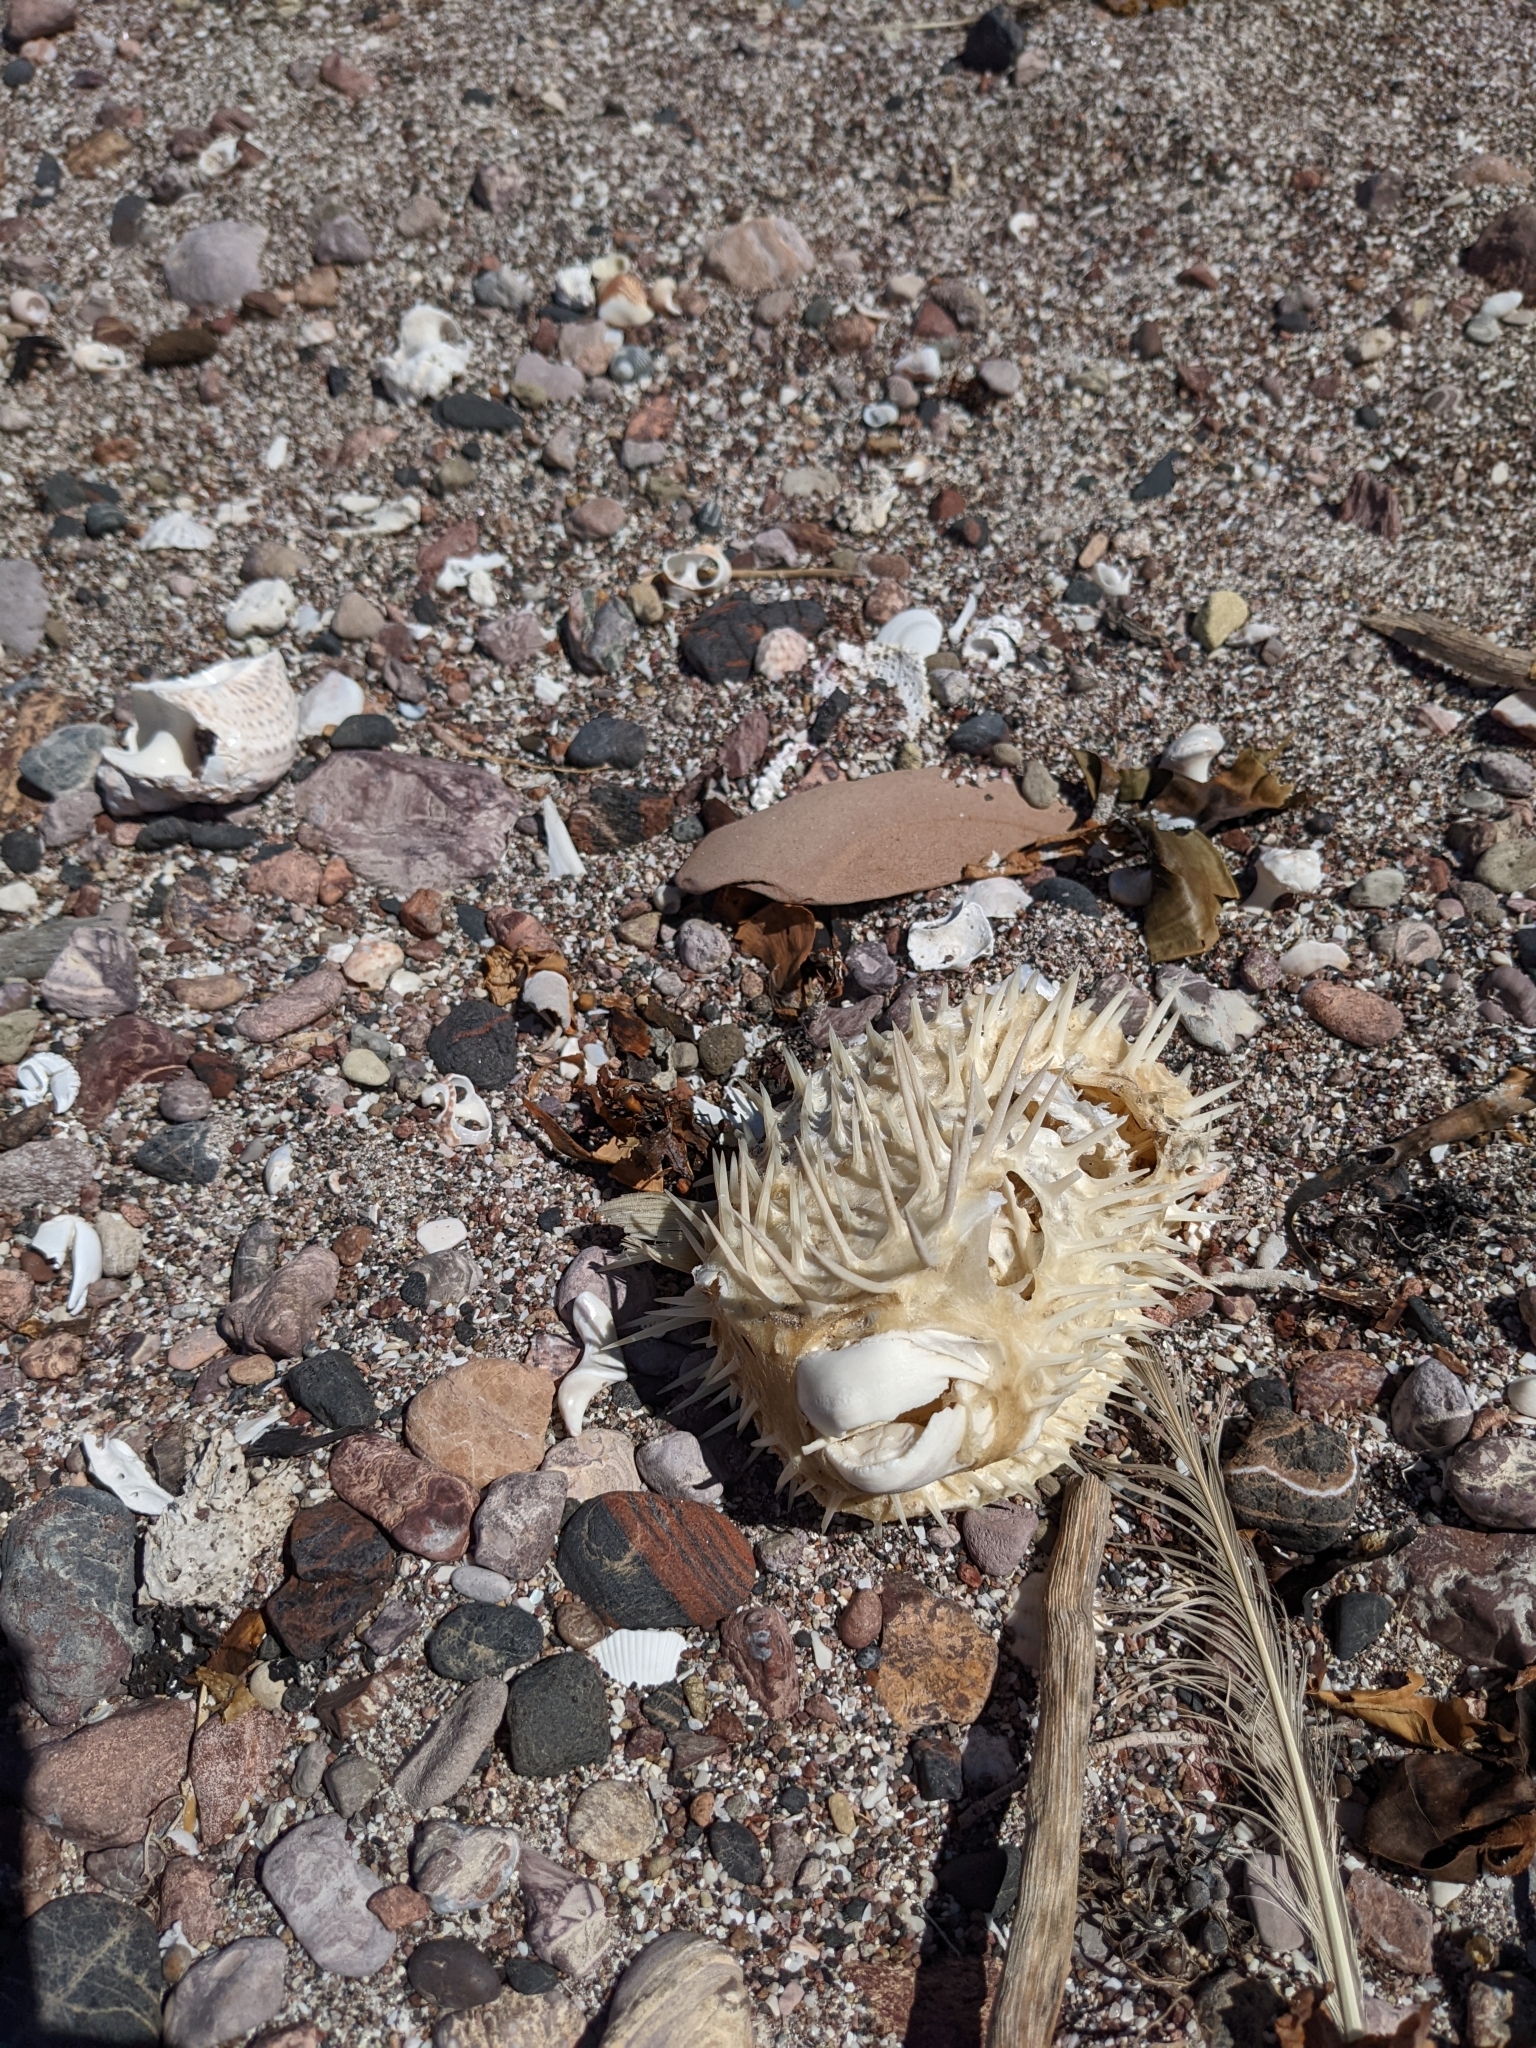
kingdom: Animalia
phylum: Chordata
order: Tetraodontiformes
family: Diodontidae
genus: Diodon
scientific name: Diodon holocanthus
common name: Balloonfish
